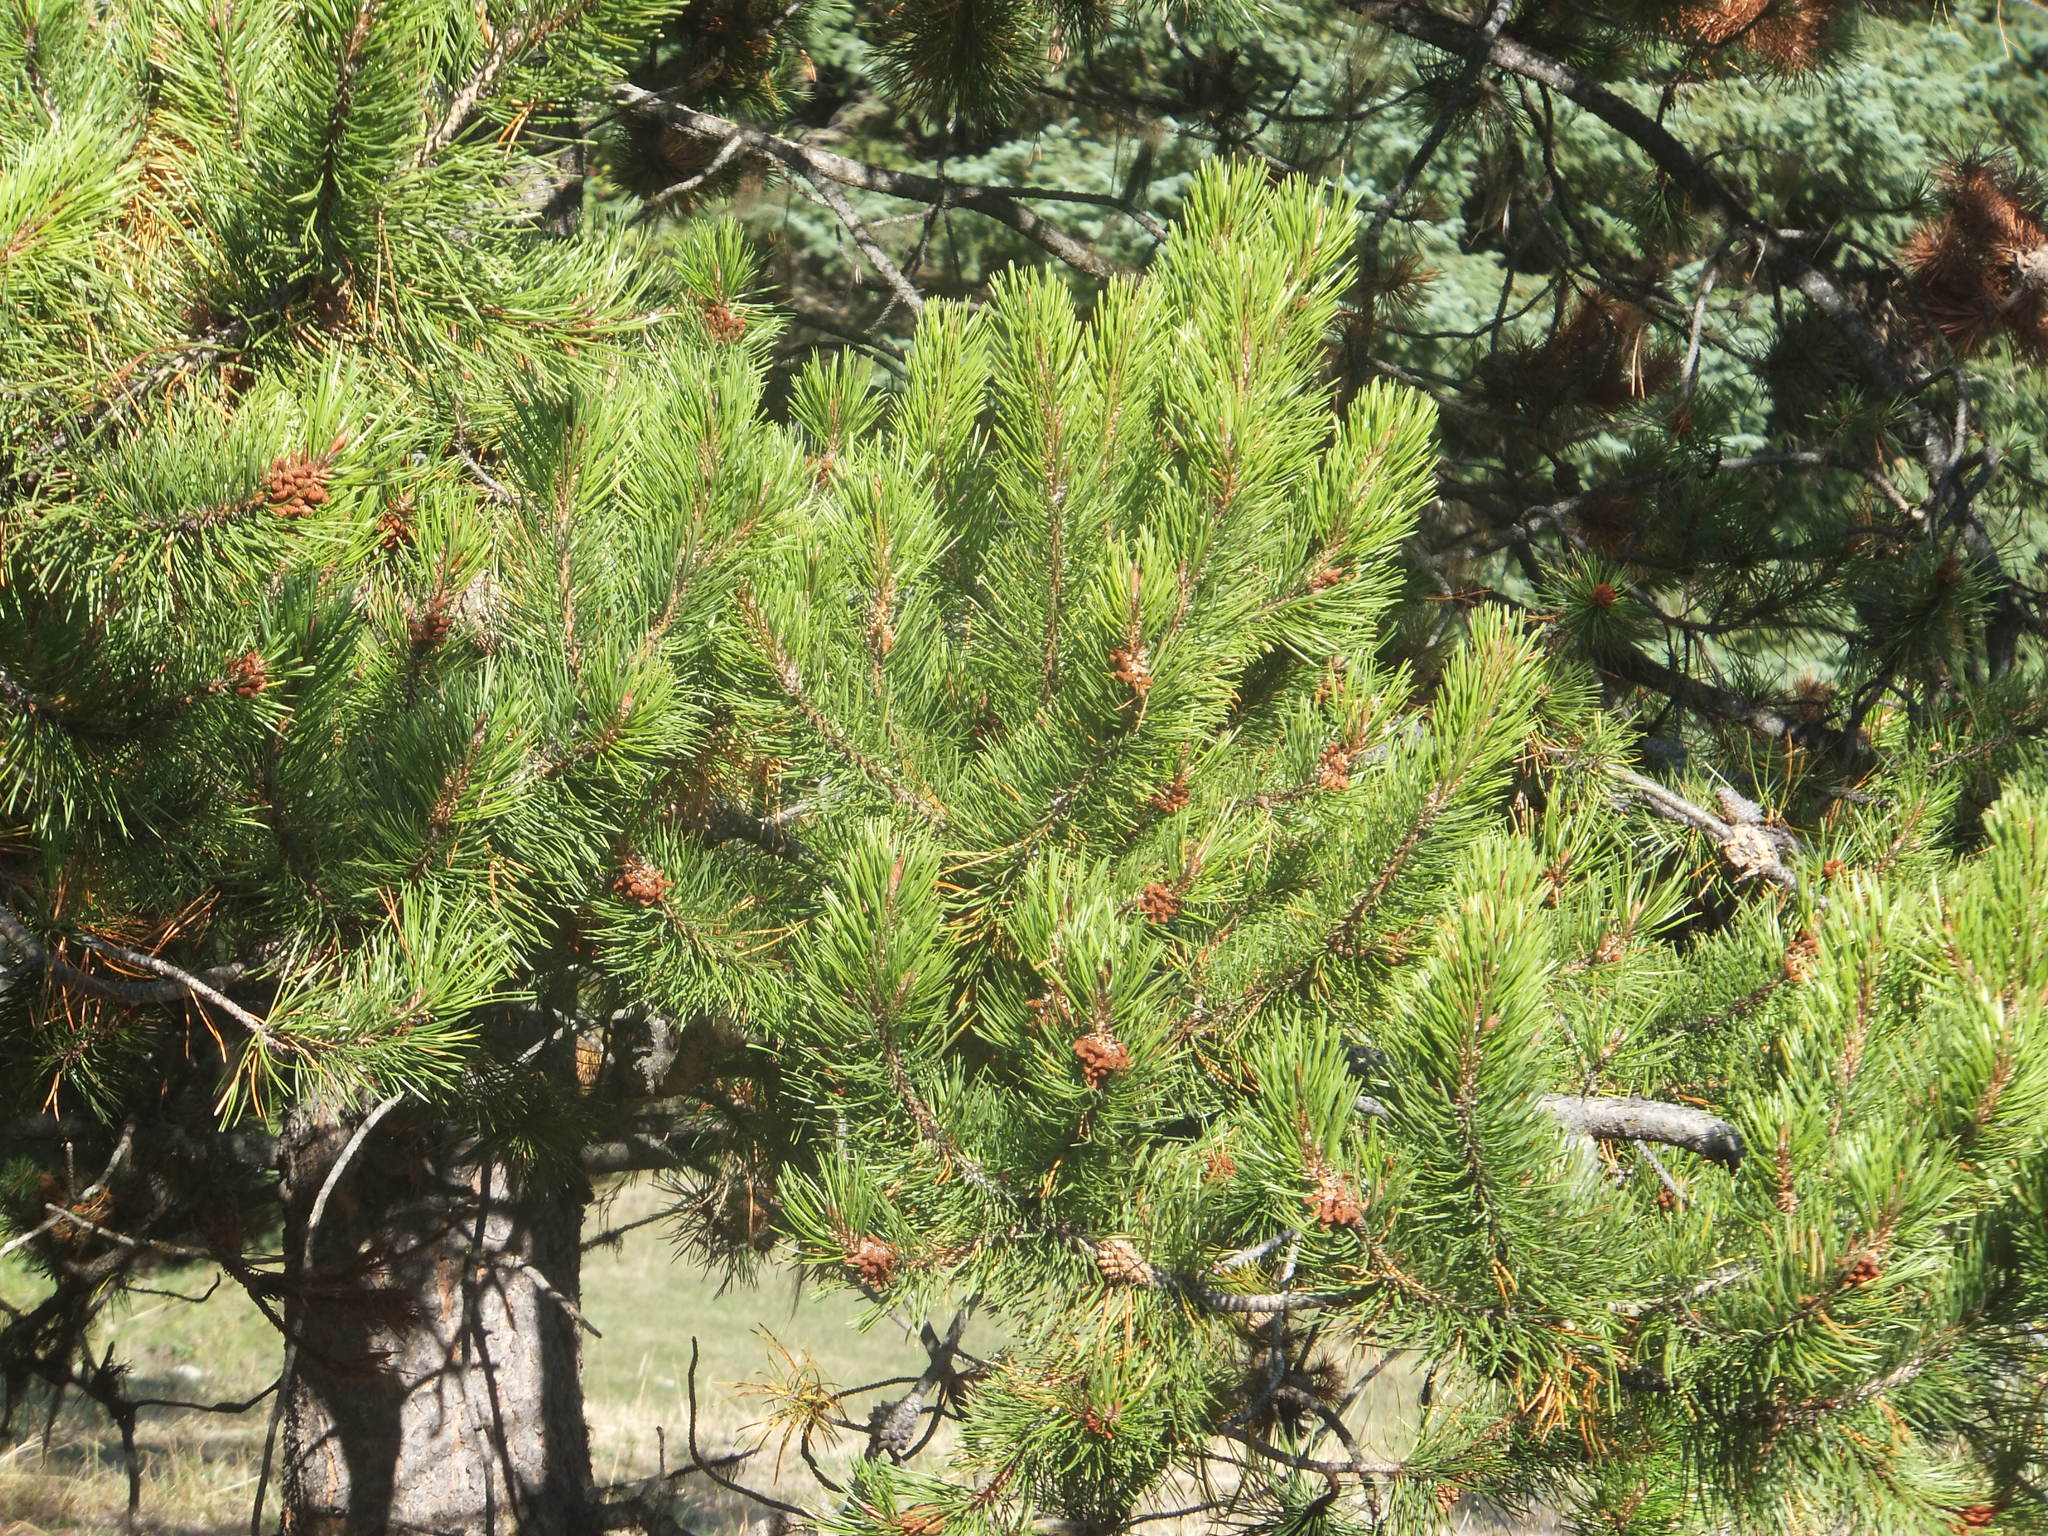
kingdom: Plantae
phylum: Tracheophyta
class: Pinopsida
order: Pinales
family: Pinaceae
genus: Pinus
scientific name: Pinus contorta
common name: Lodgepole pine
